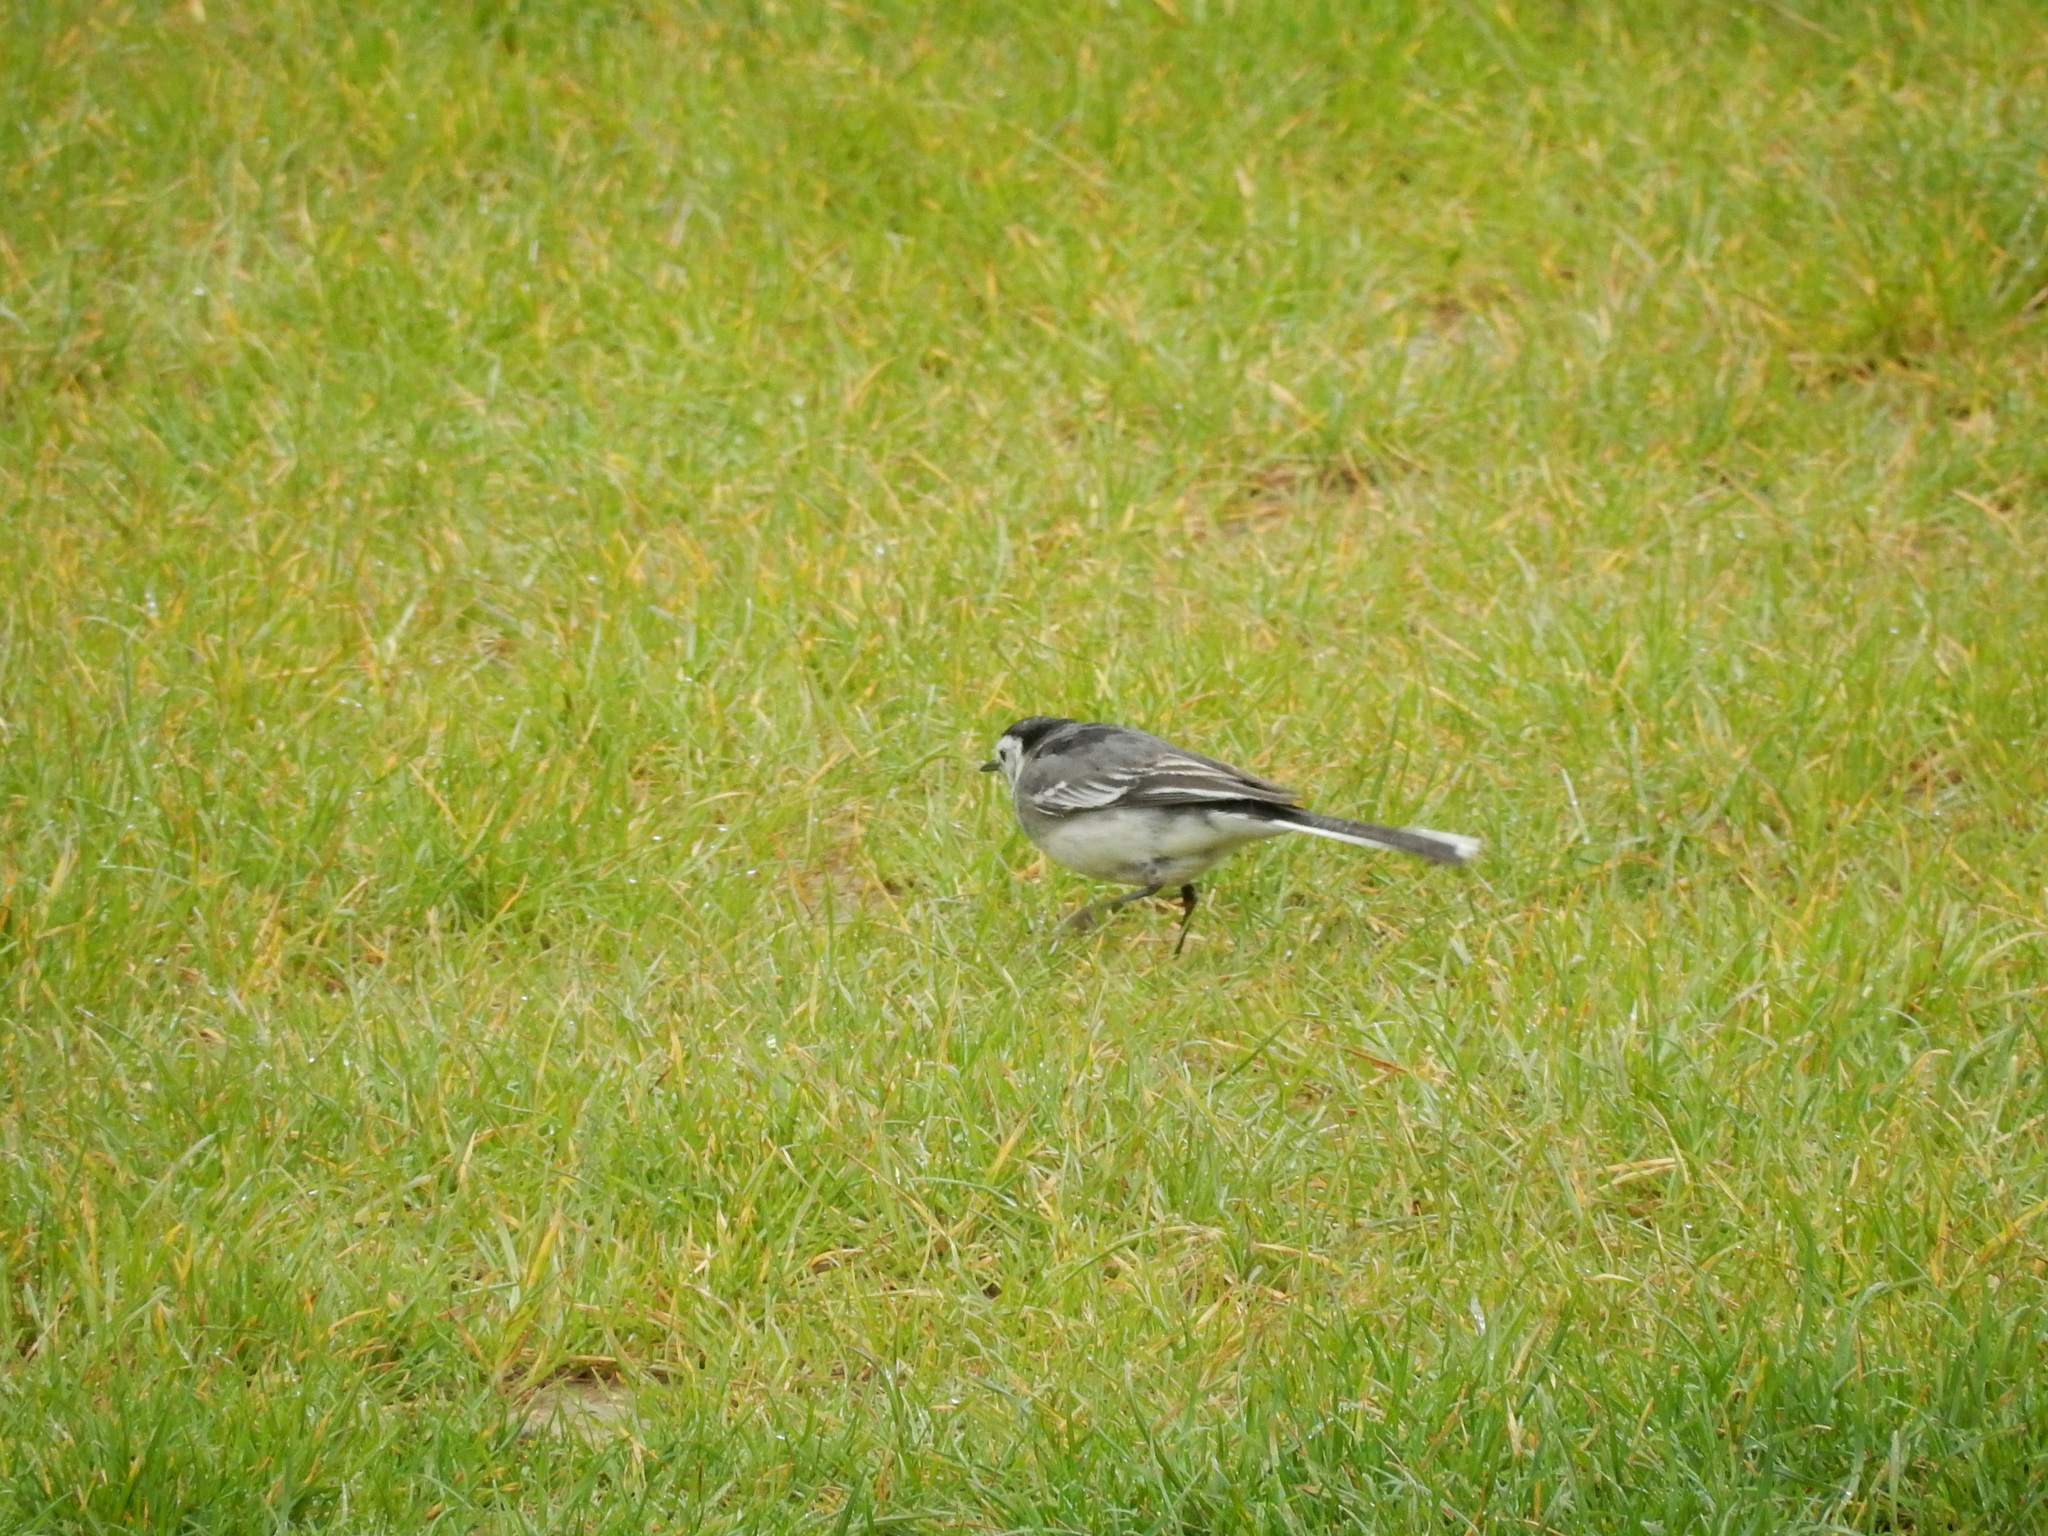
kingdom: Animalia
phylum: Chordata
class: Aves
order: Passeriformes
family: Motacillidae
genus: Motacilla
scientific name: Motacilla alba
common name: White wagtail
